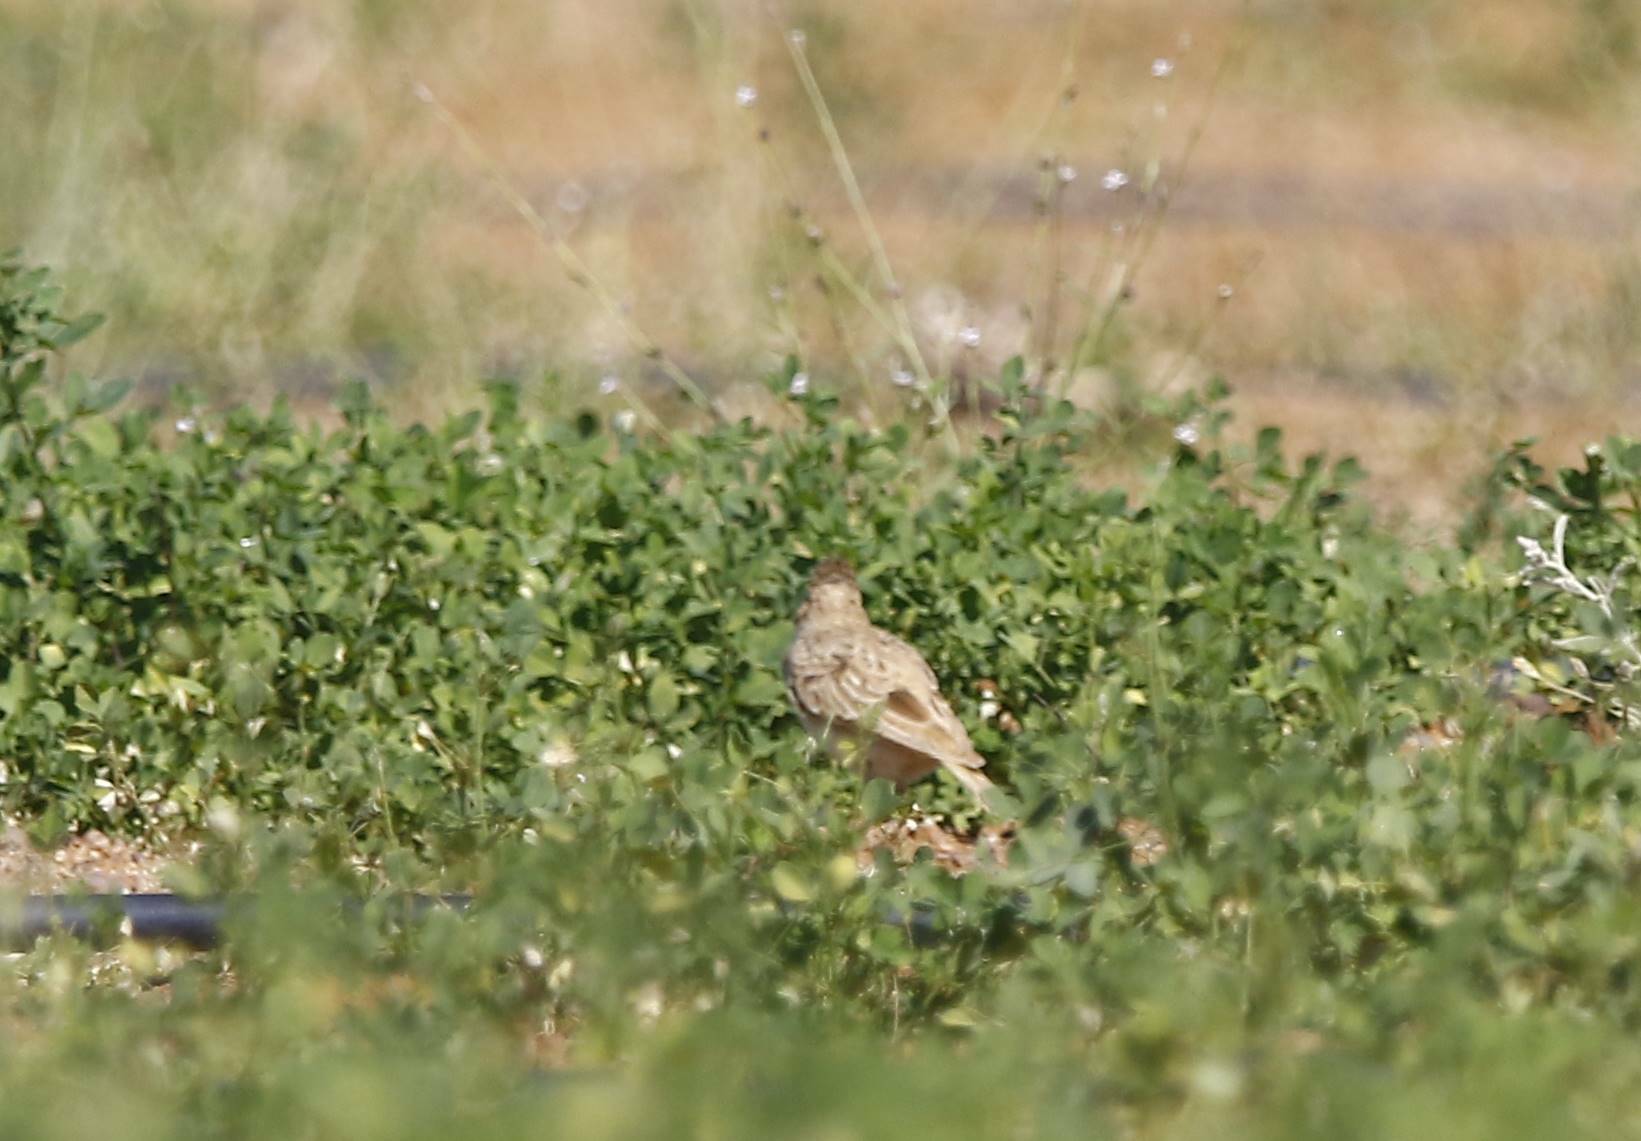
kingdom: Animalia
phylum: Chordata
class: Aves
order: Passeriformes
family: Alaudidae
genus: Galerida
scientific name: Galerida cristata
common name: Crested lark
